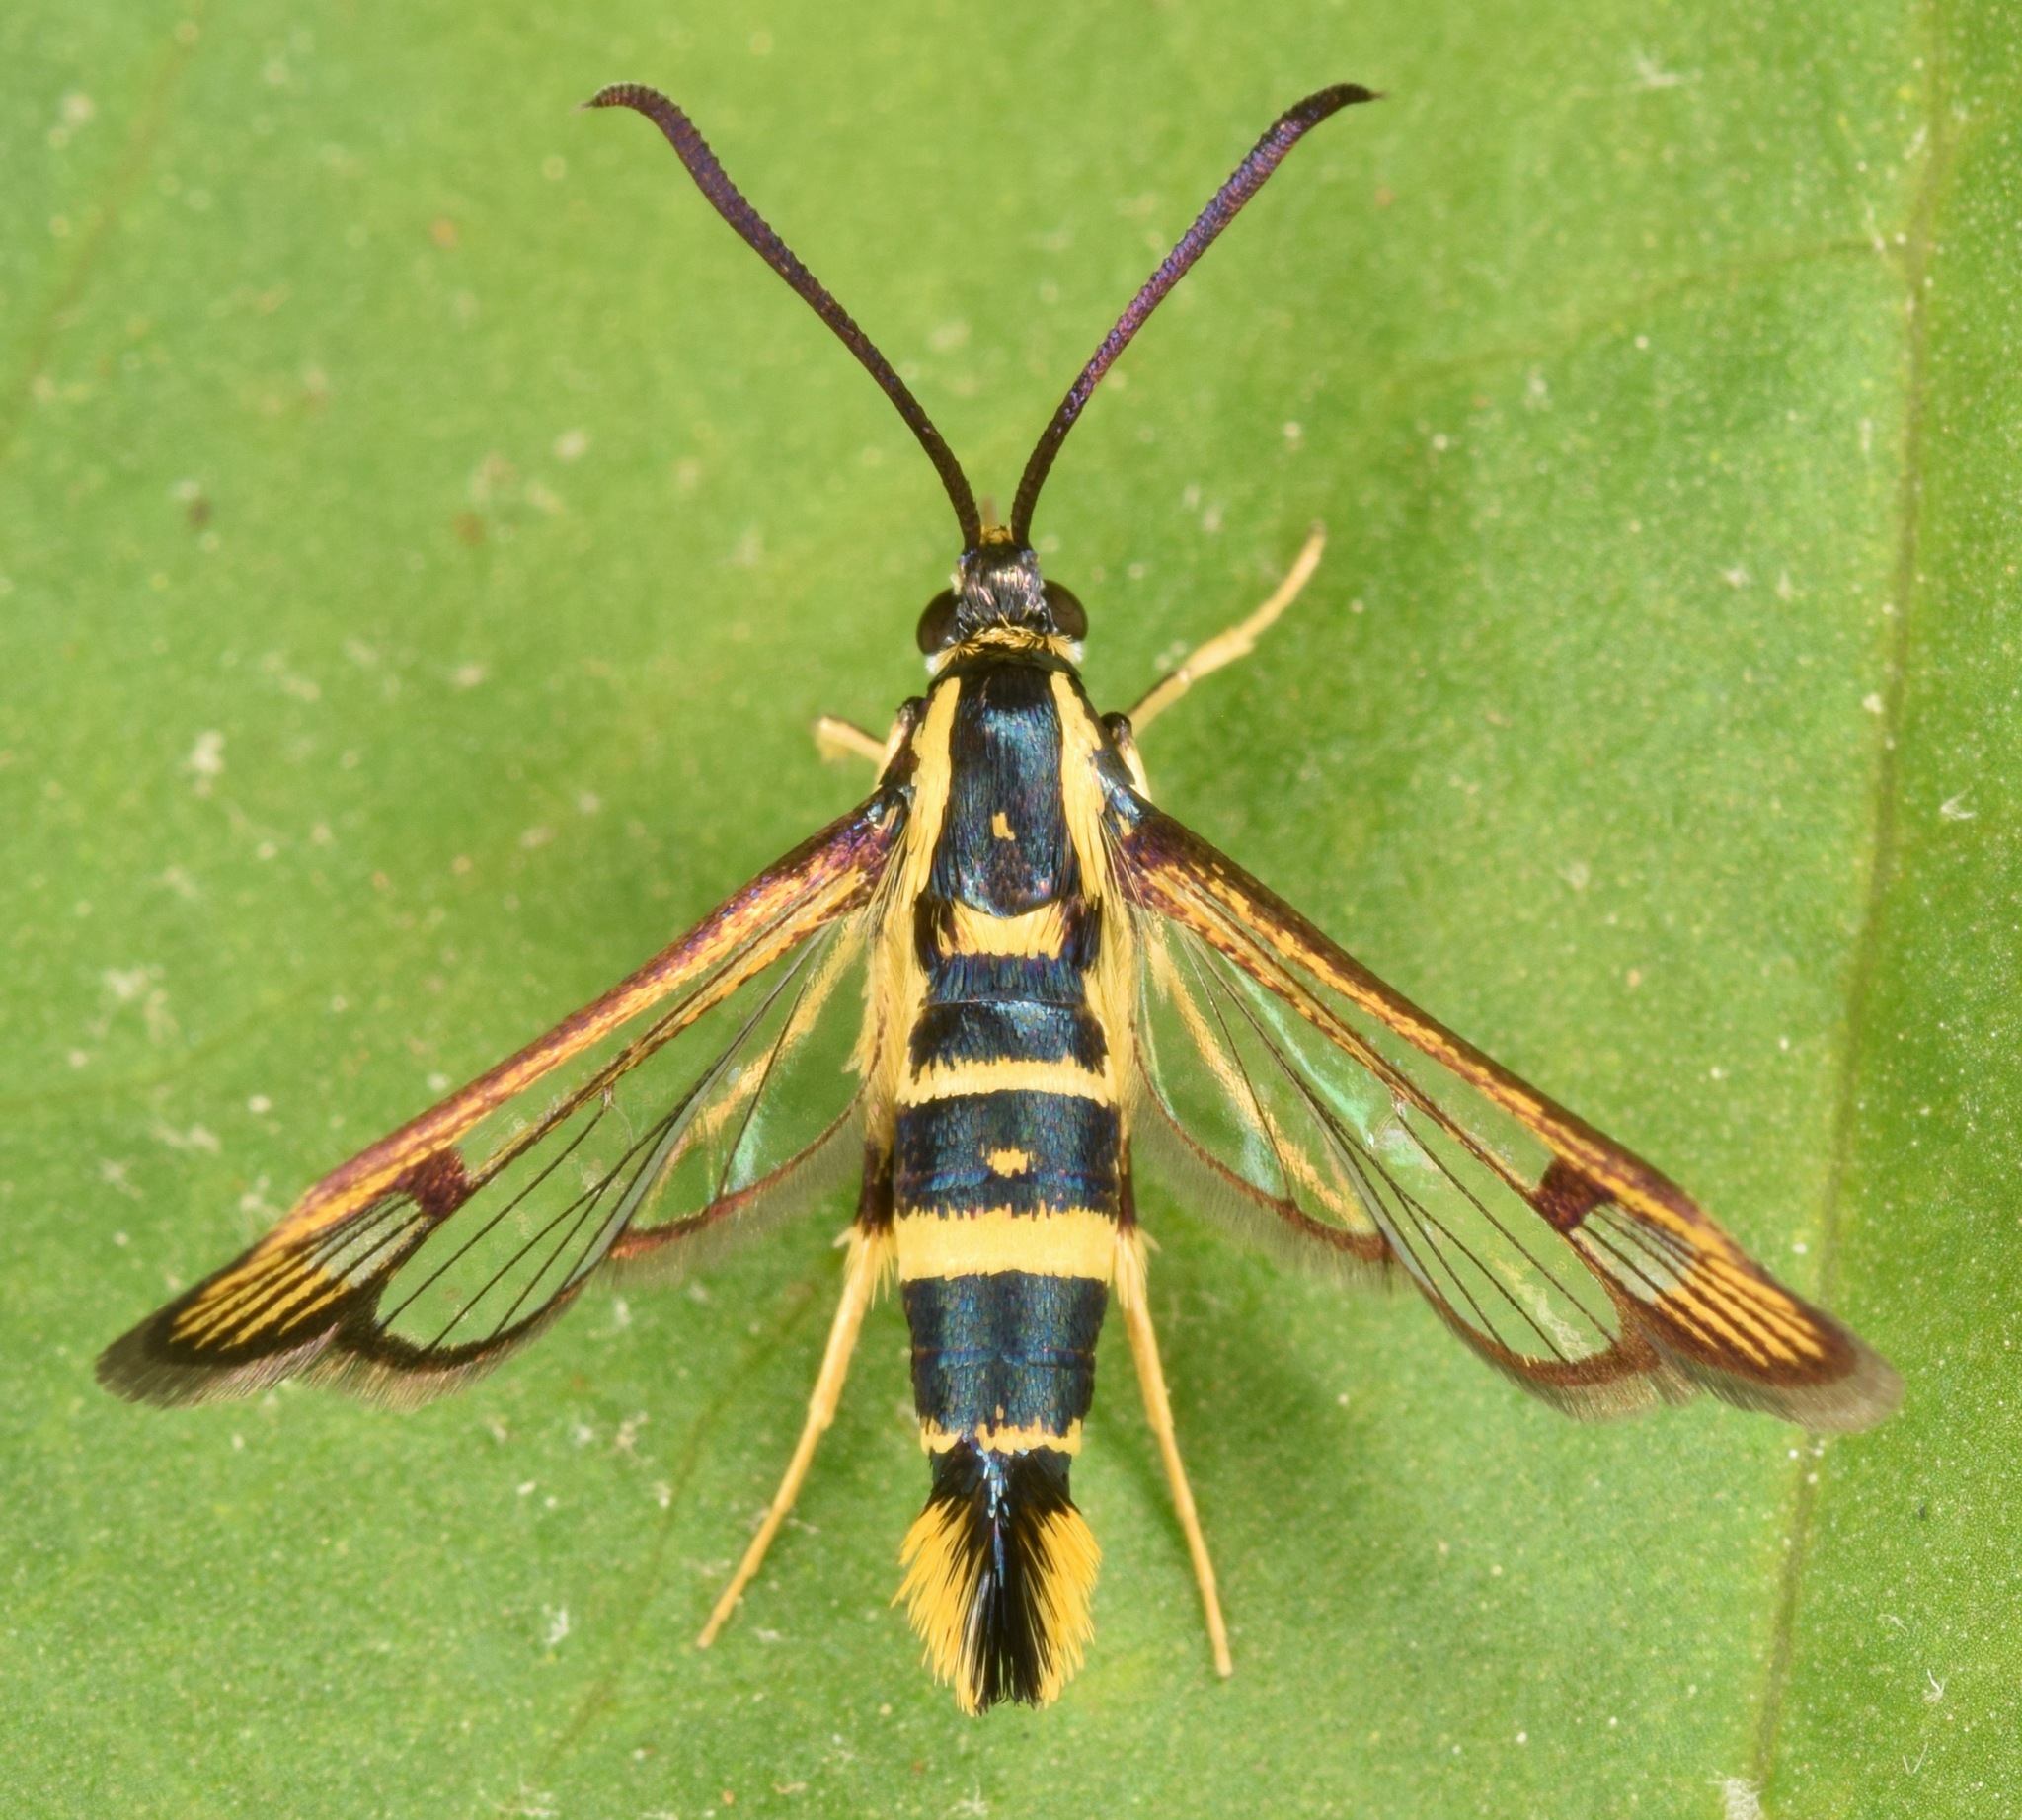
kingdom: Animalia
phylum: Arthropoda
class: Insecta
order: Lepidoptera
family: Sesiidae
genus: Synanthedon
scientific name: Synanthedon scitula
